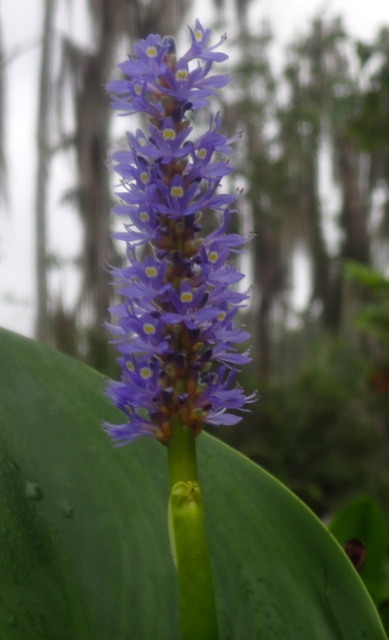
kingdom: Plantae
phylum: Tracheophyta
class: Liliopsida
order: Commelinales
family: Pontederiaceae
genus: Pontederia
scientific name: Pontederia cordata
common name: Pickerelweed
